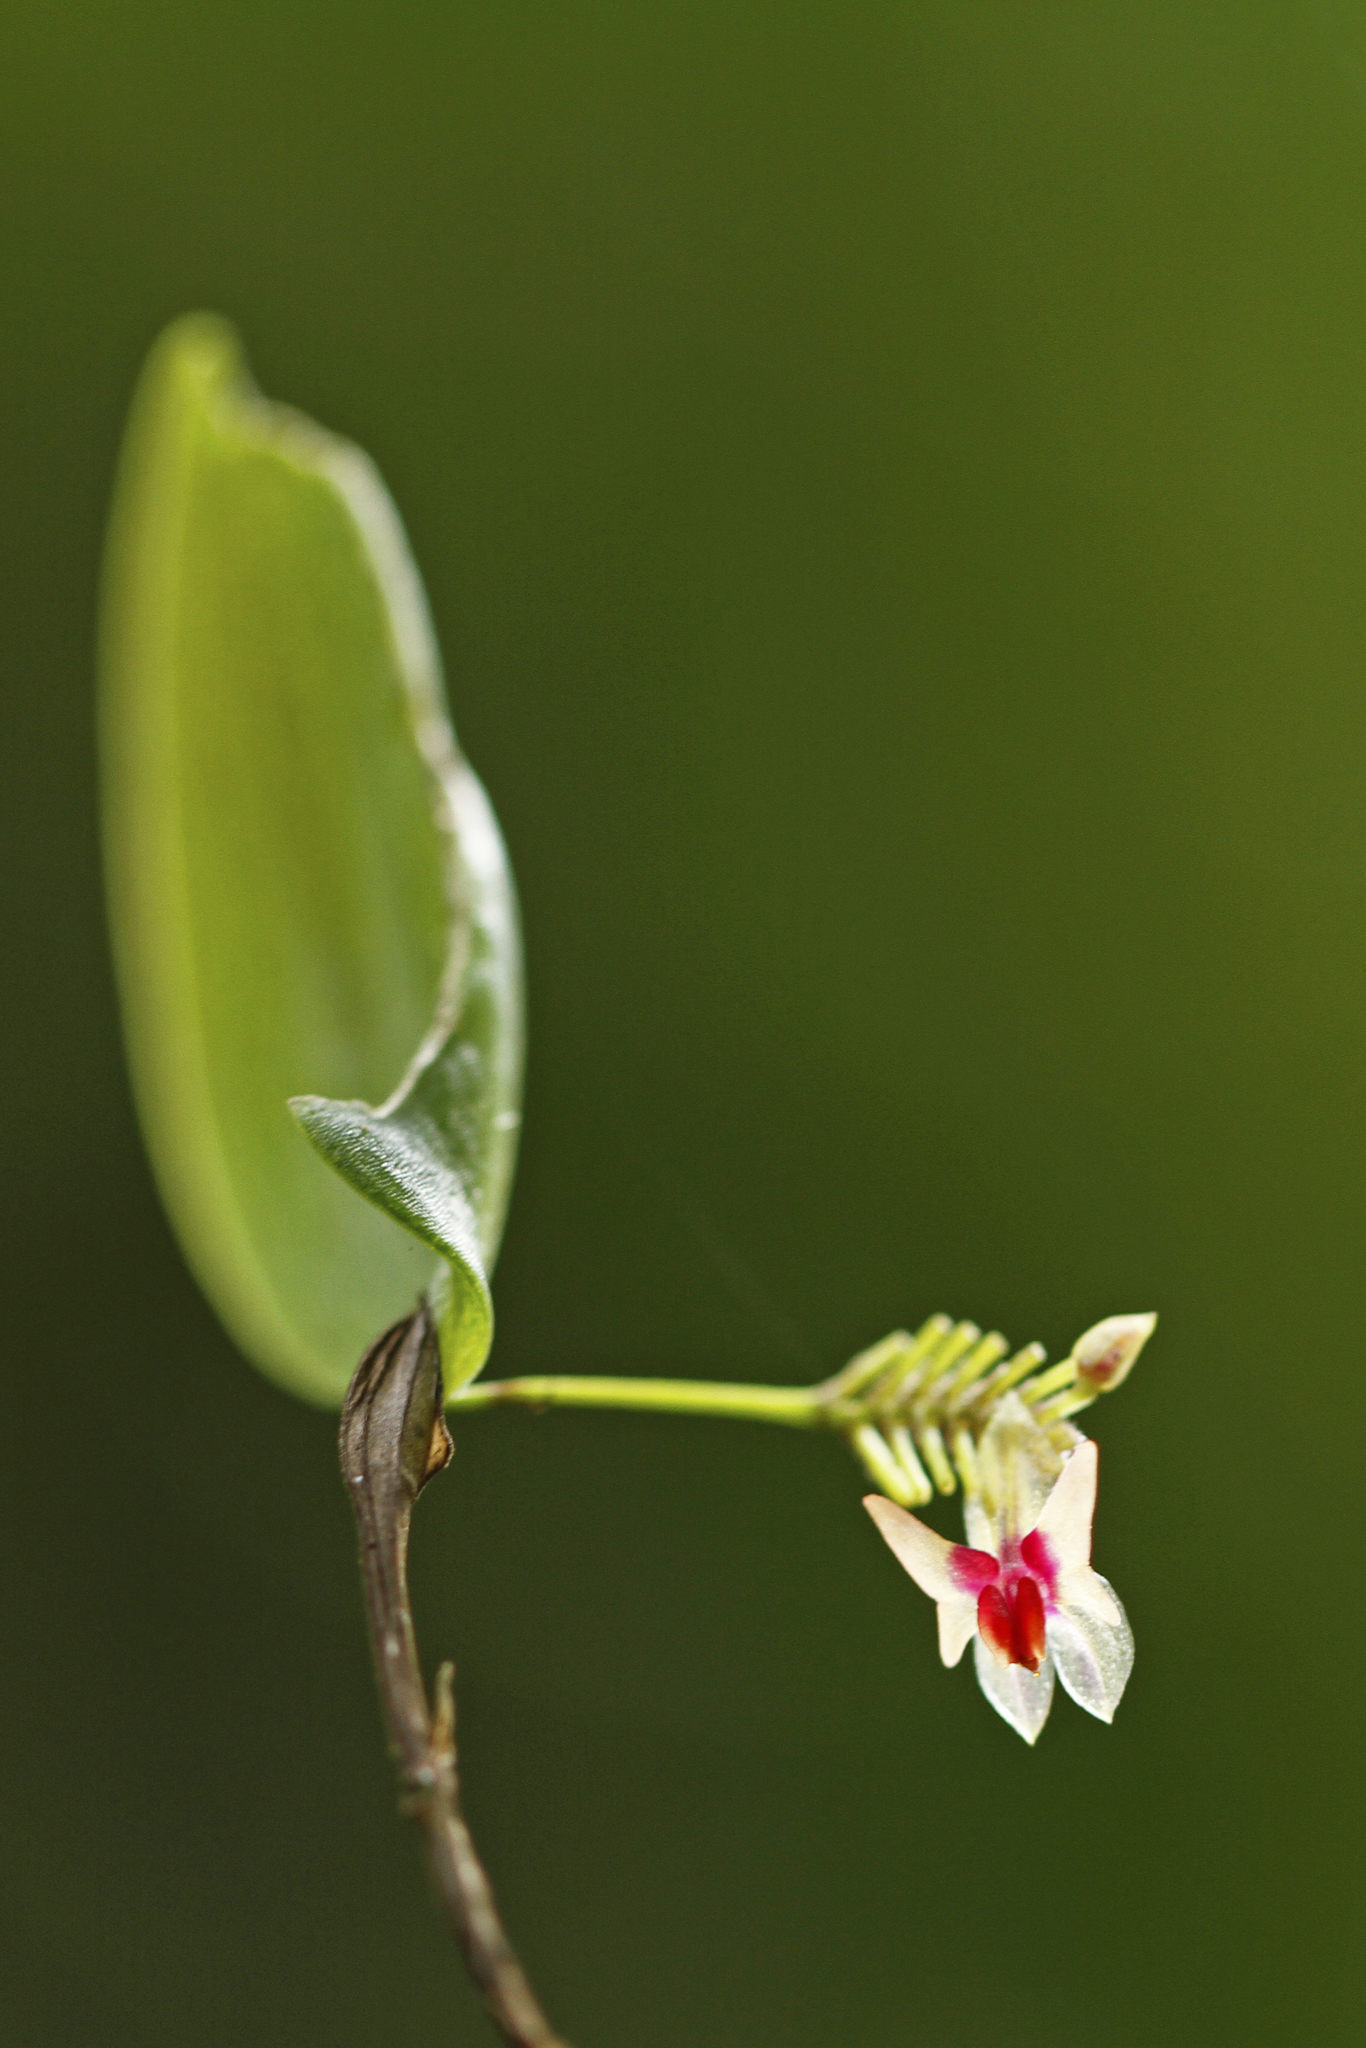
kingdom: Plantae
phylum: Tracheophyta
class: Liliopsida
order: Asparagales
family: Orchidaceae
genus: Lepanthes
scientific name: Lepanthes turialvae
